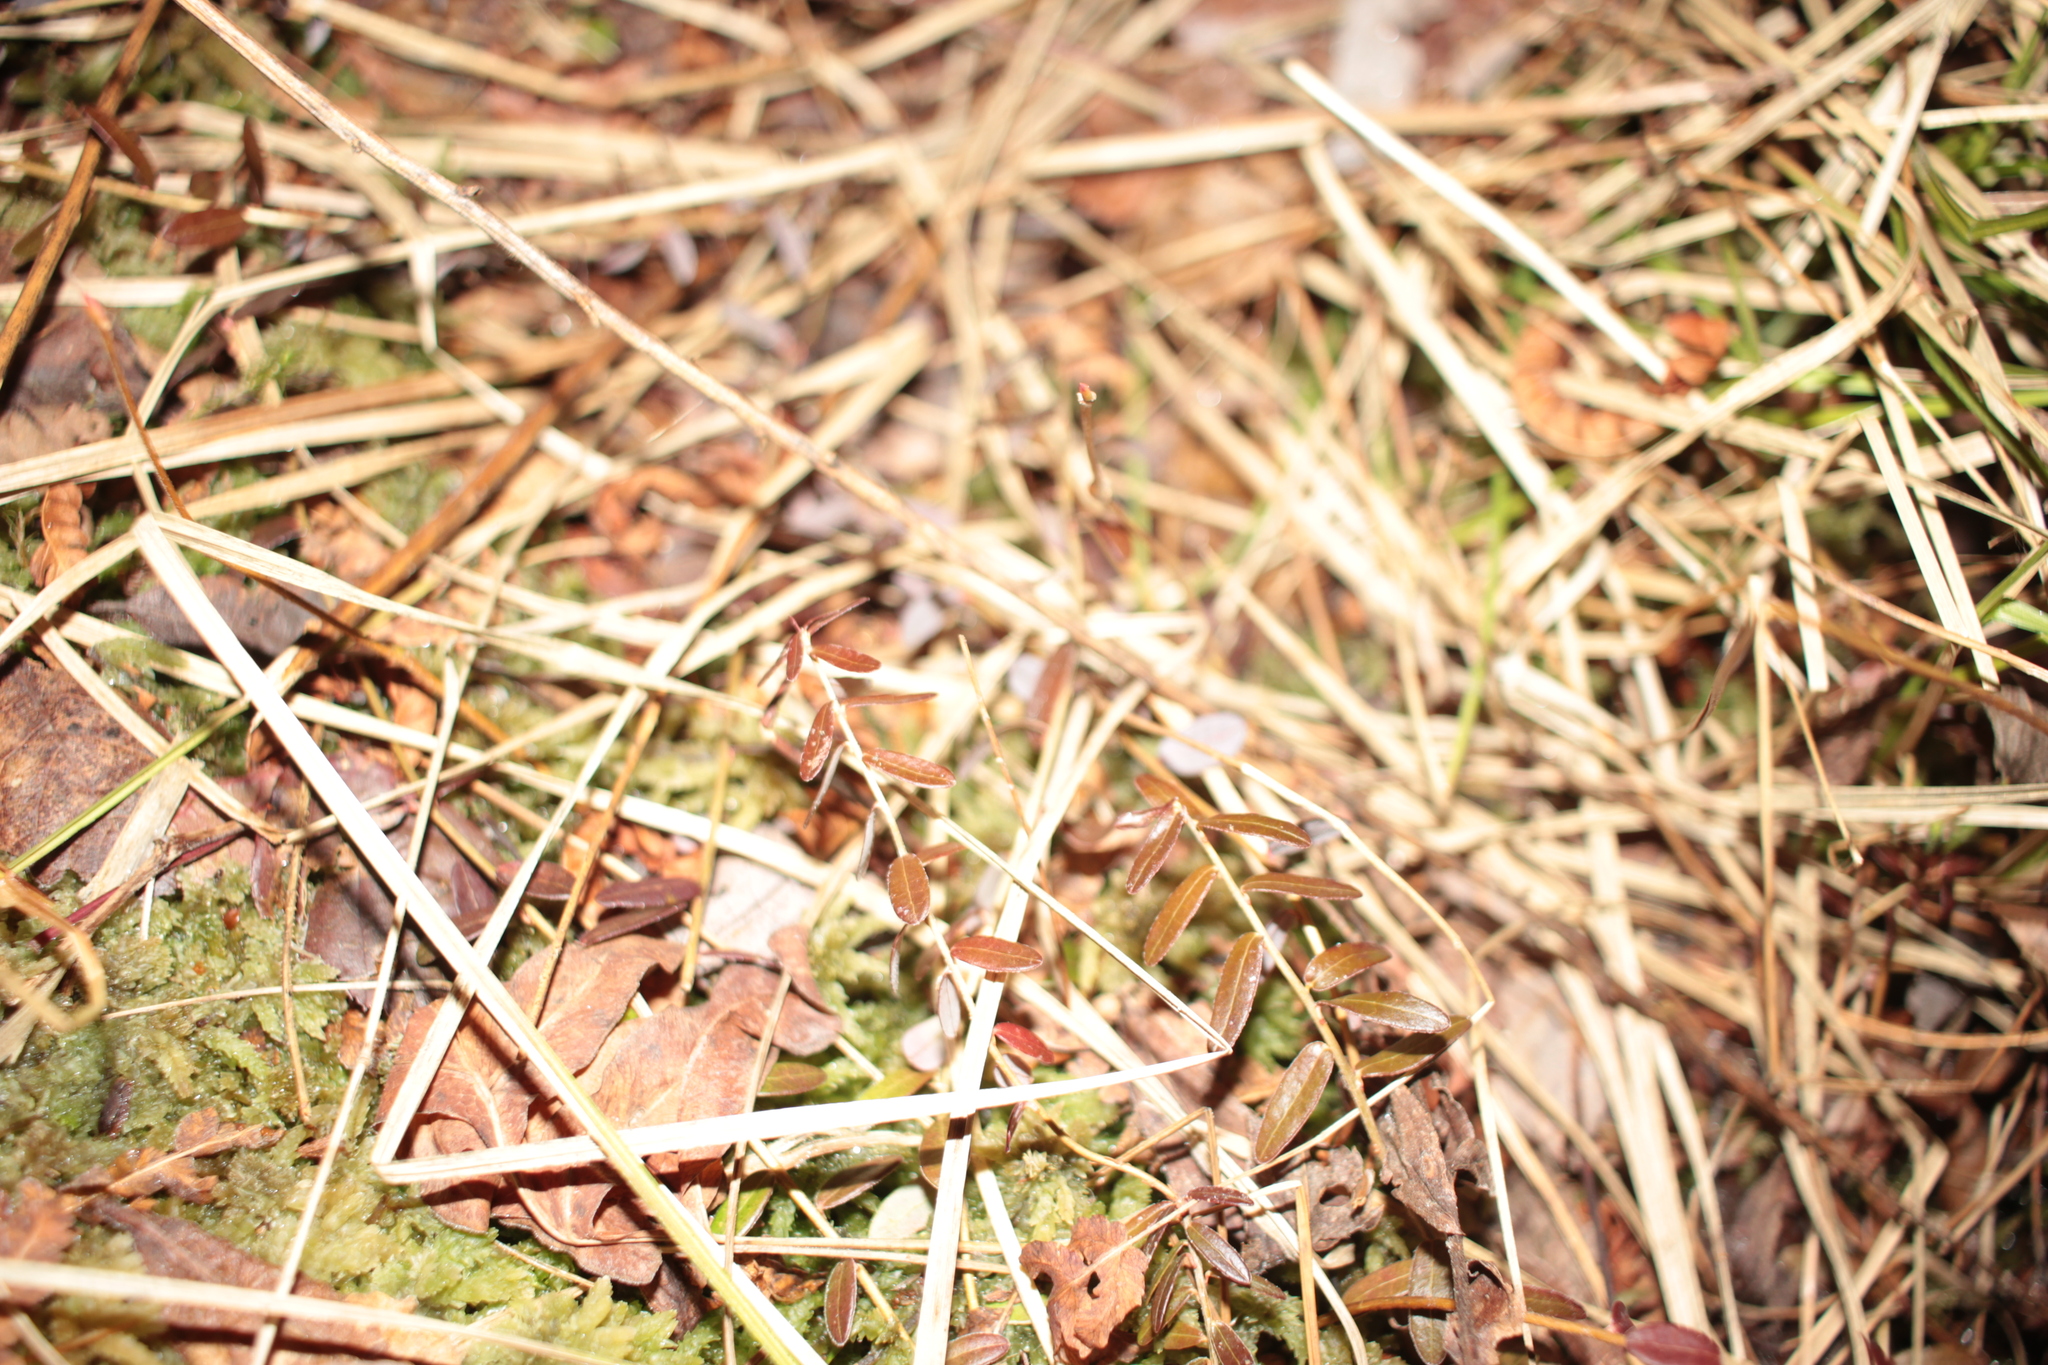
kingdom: Plantae
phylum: Tracheophyta
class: Magnoliopsida
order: Ericales
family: Ericaceae
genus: Vaccinium
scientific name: Vaccinium macrocarpon
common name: American cranberry
